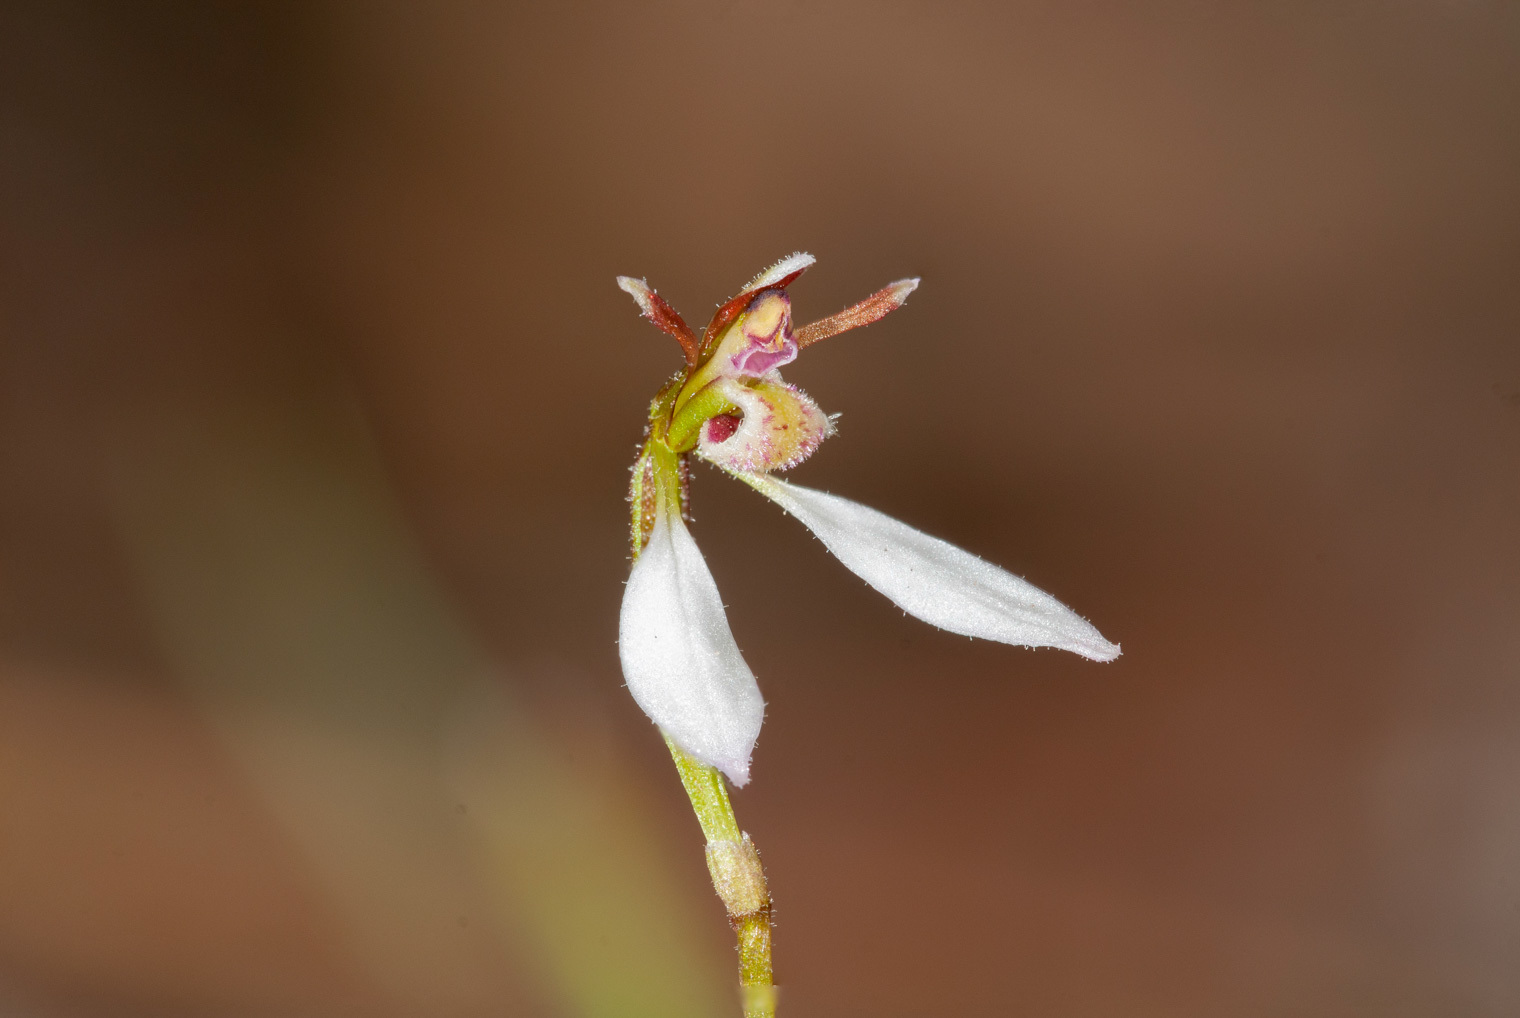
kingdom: Plantae
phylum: Tracheophyta
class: Liliopsida
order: Asparagales
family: Orchidaceae
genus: Eriochilus
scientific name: Eriochilus cucullatus
